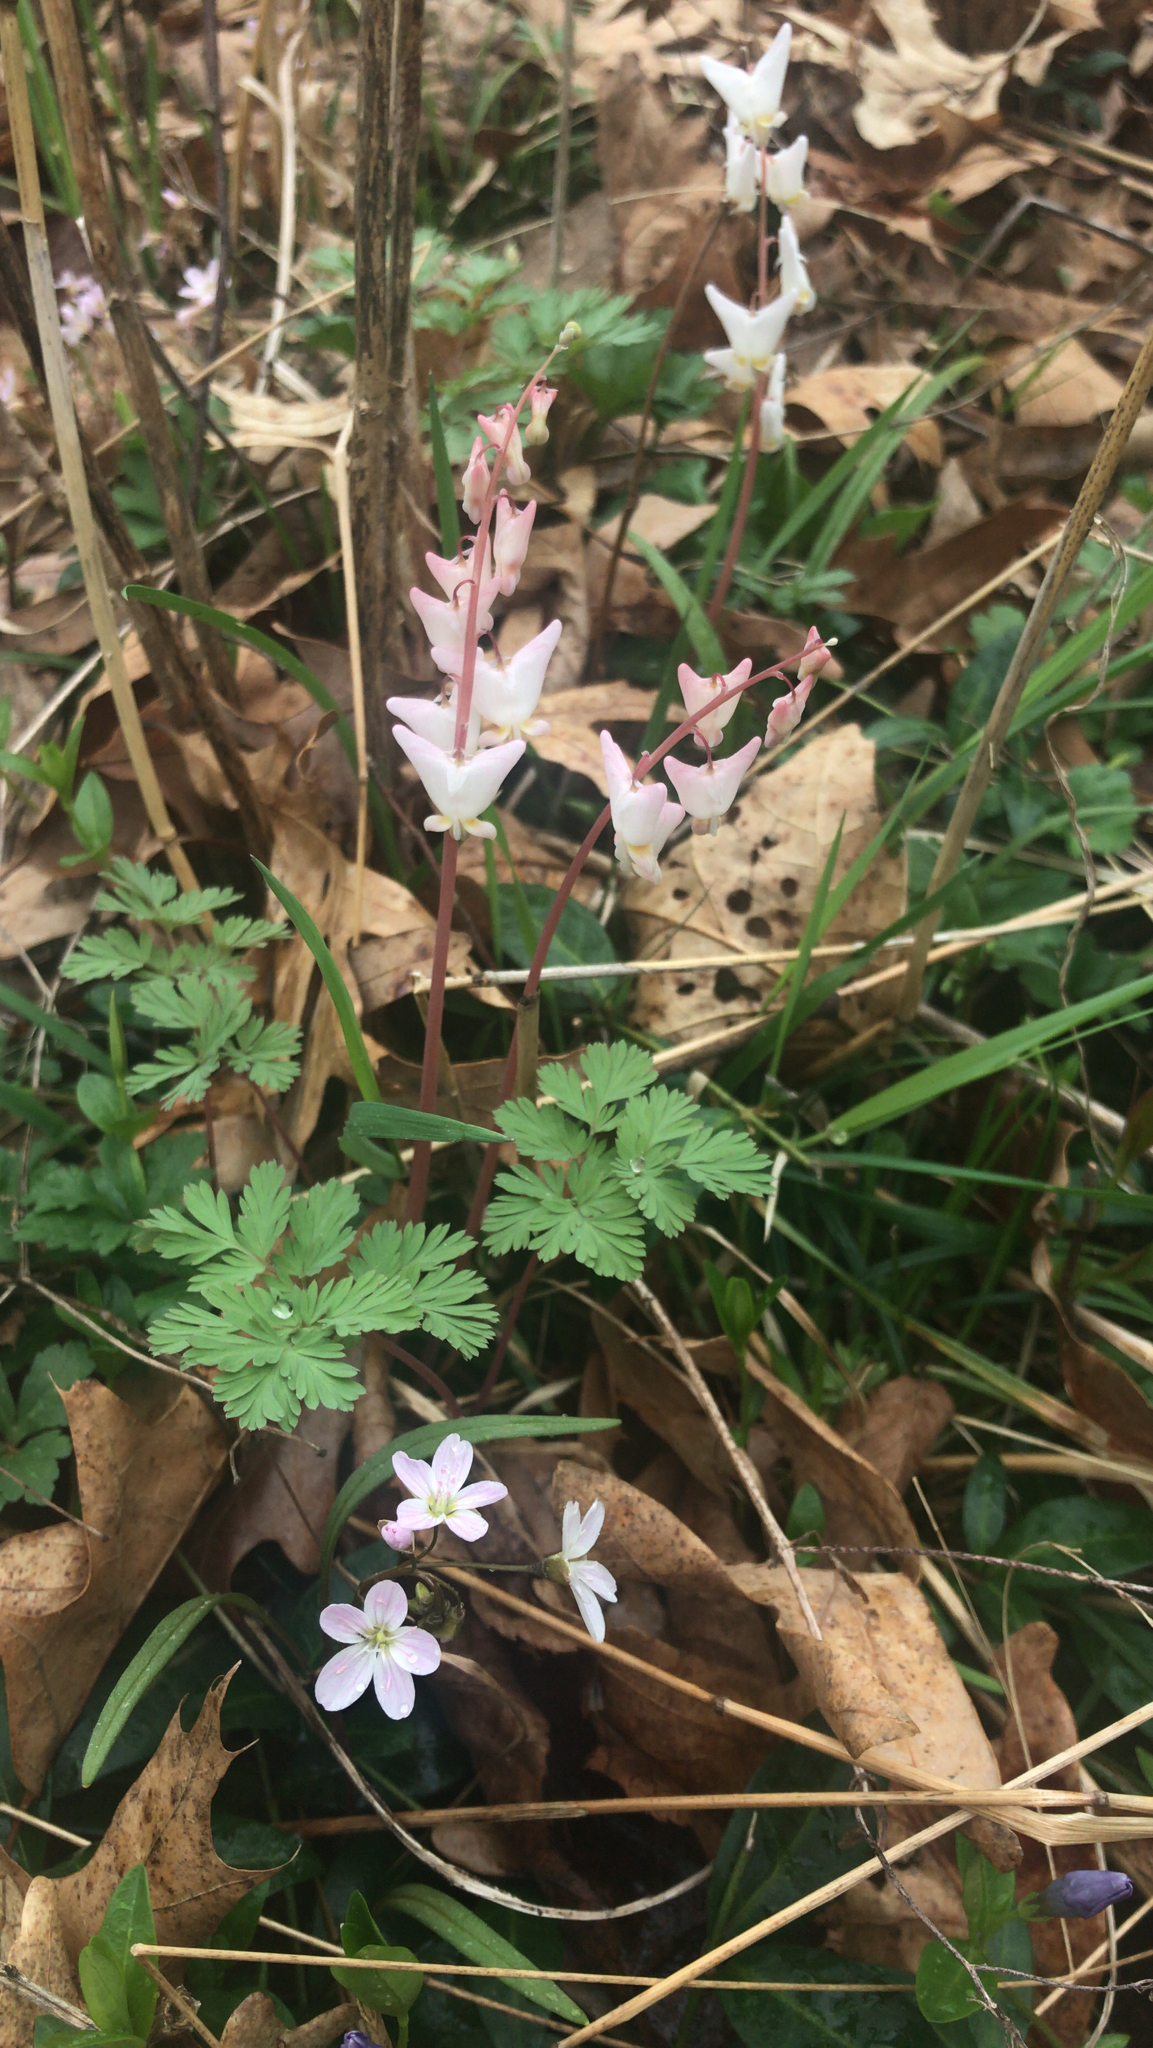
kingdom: Plantae
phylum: Tracheophyta
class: Magnoliopsida
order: Ranunculales
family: Papaveraceae
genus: Dicentra
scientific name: Dicentra cucullaria
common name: Dutchman's breeches
